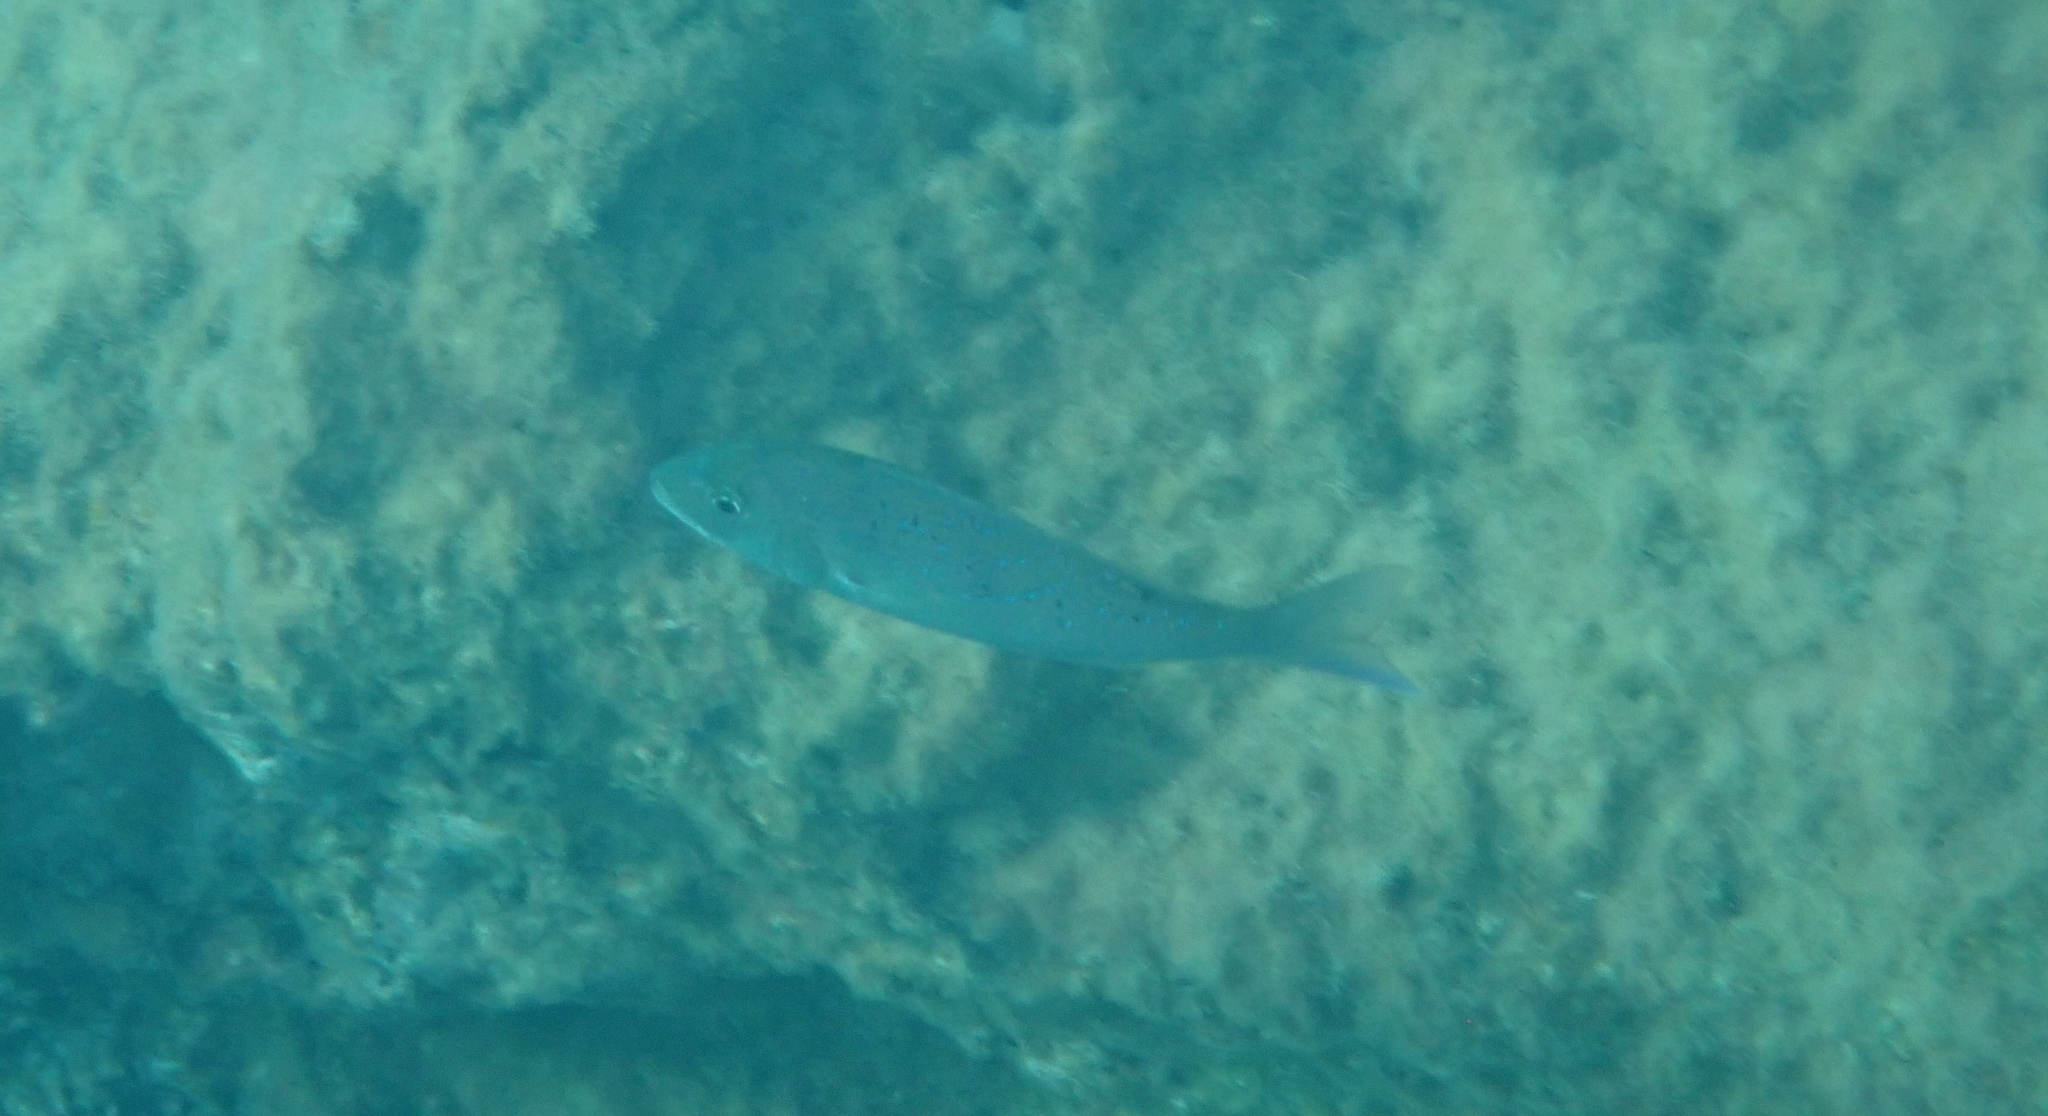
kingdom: Animalia
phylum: Chordata
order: Perciformes
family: Sparidae
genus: Dentex
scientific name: Dentex dentex
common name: Dentex
